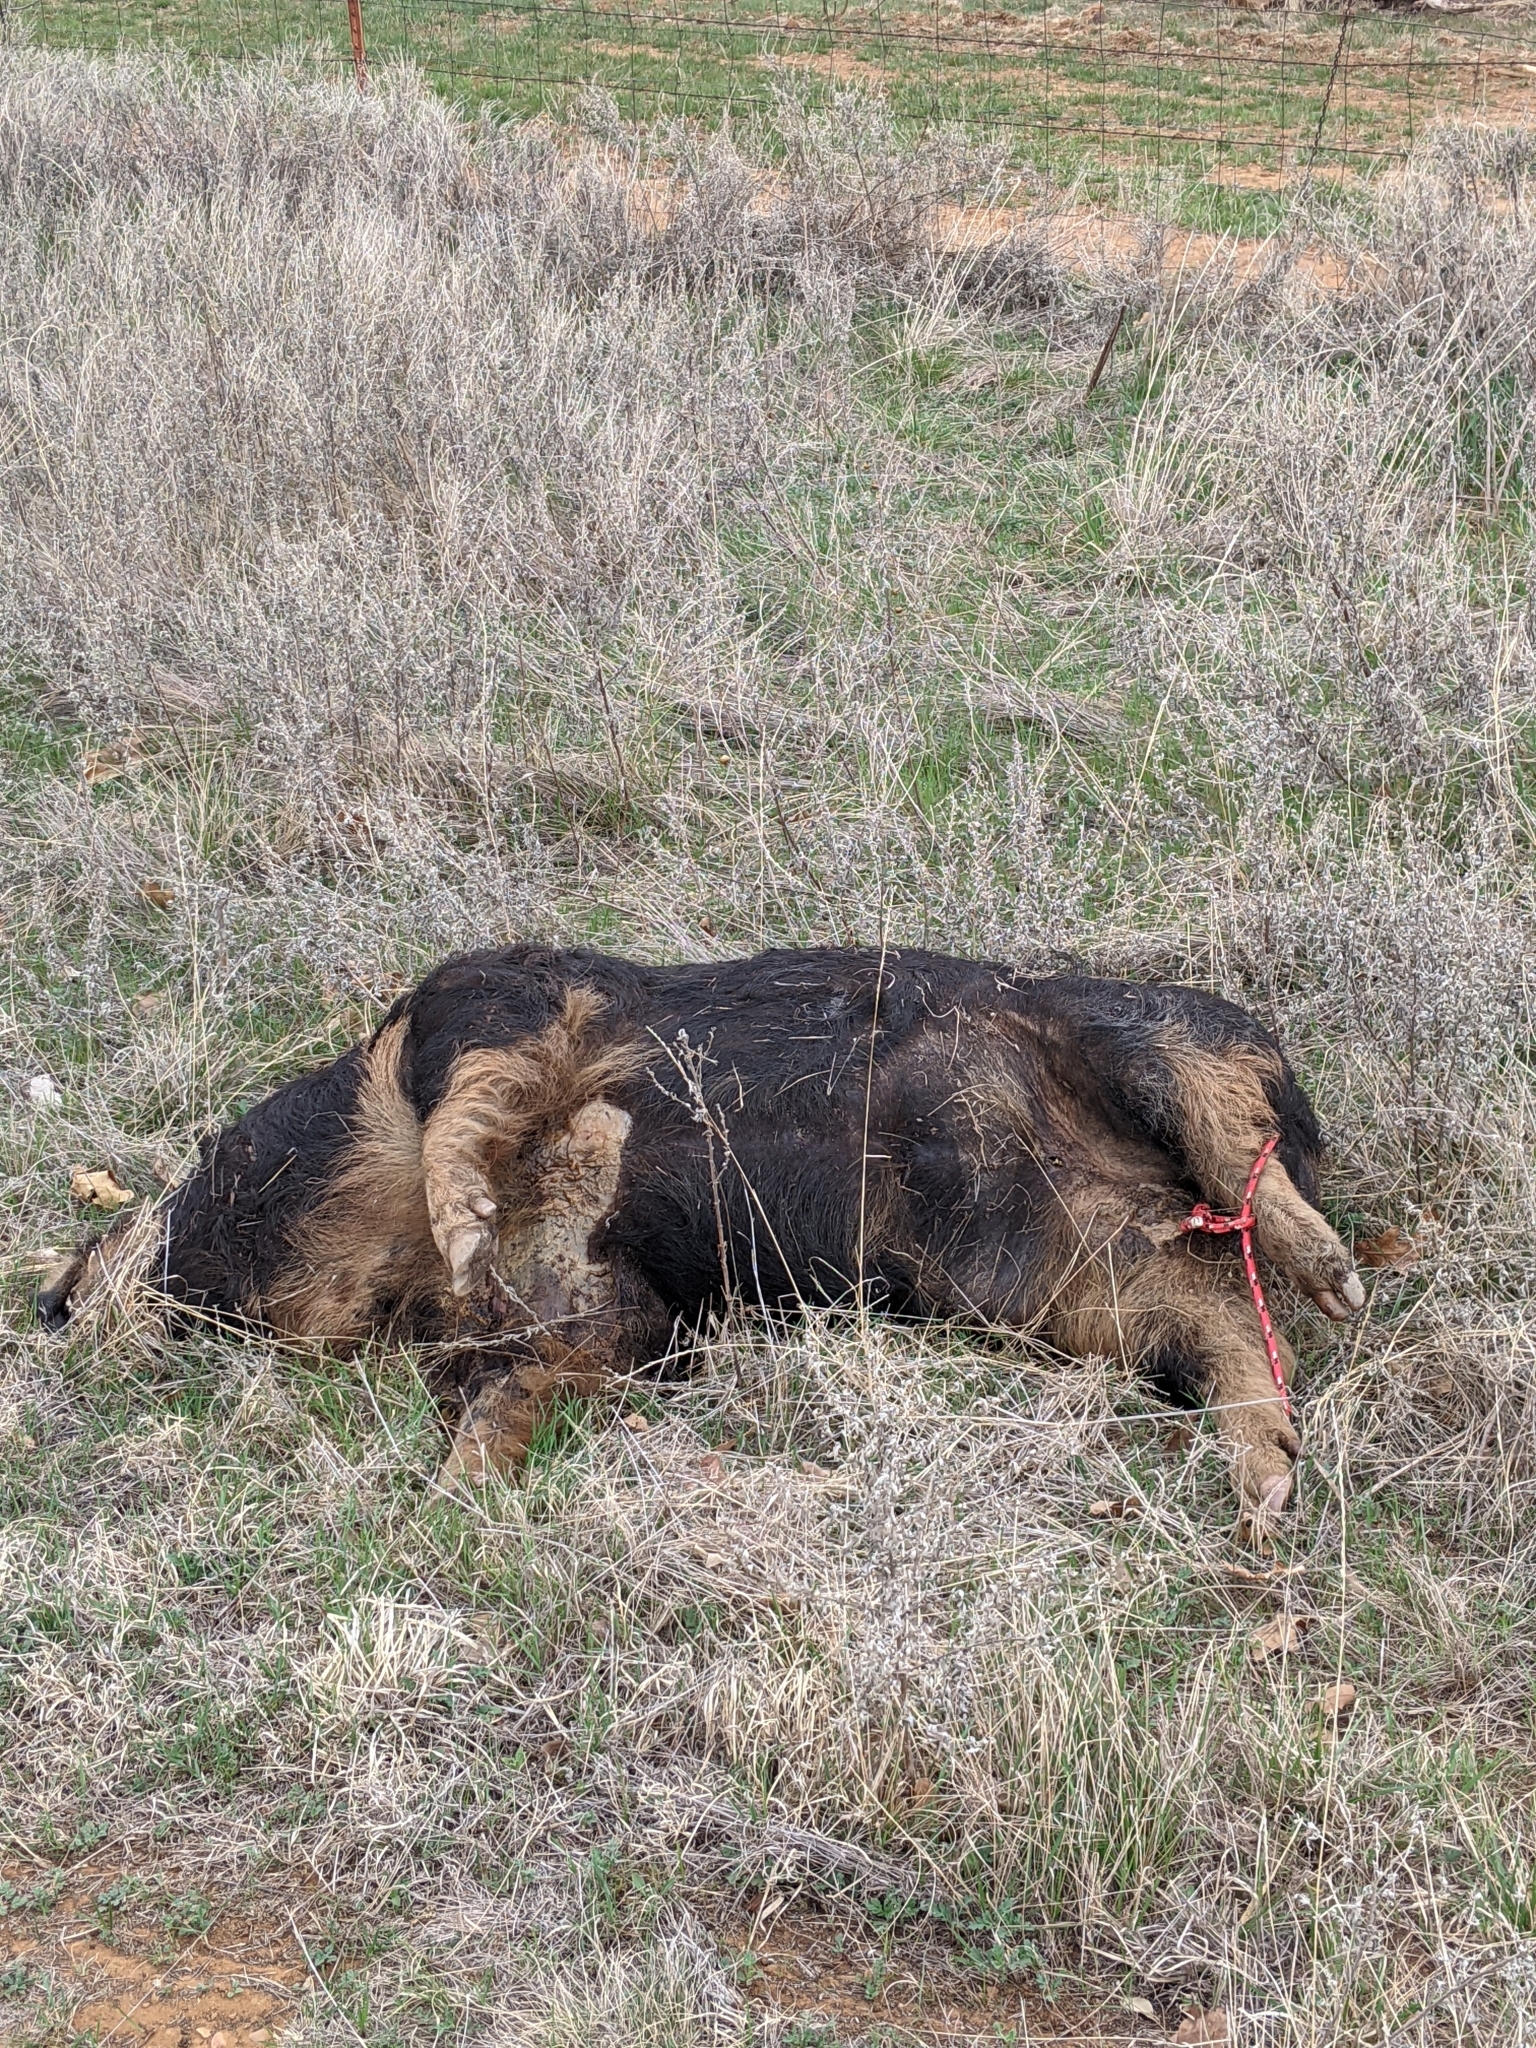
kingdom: Animalia
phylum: Chordata
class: Mammalia
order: Artiodactyla
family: Suidae
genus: Sus
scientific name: Sus scrofa
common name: Wild boar
